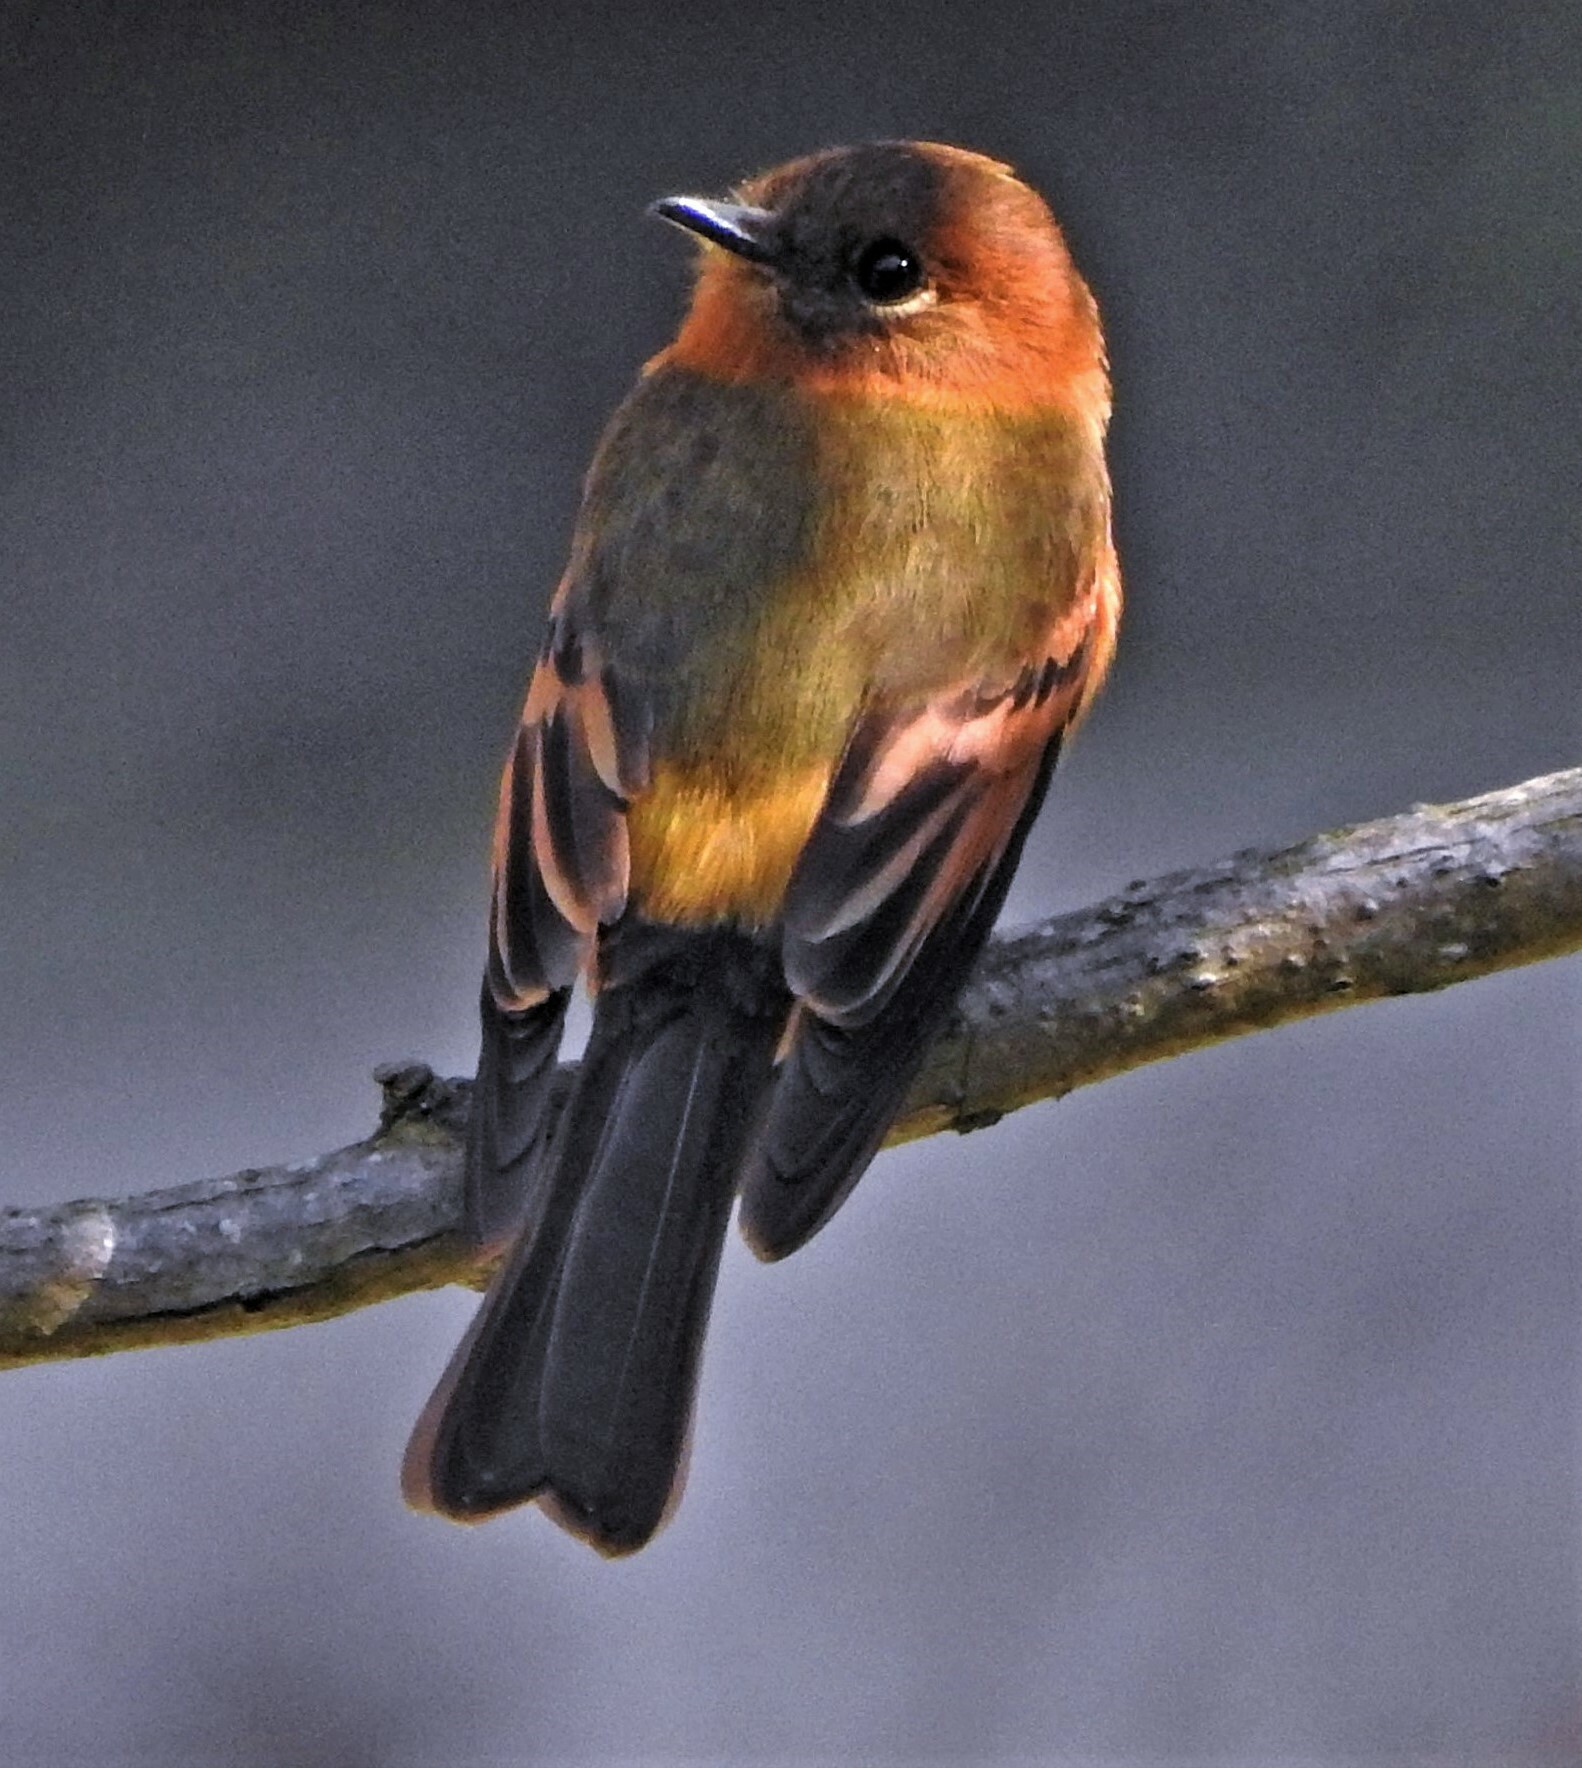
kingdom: Animalia
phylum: Chordata
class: Aves
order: Passeriformes
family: Tyrannidae
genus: Pyrrhomyias
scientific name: Pyrrhomyias cinnamomeus
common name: Cinnamon flycatcher
